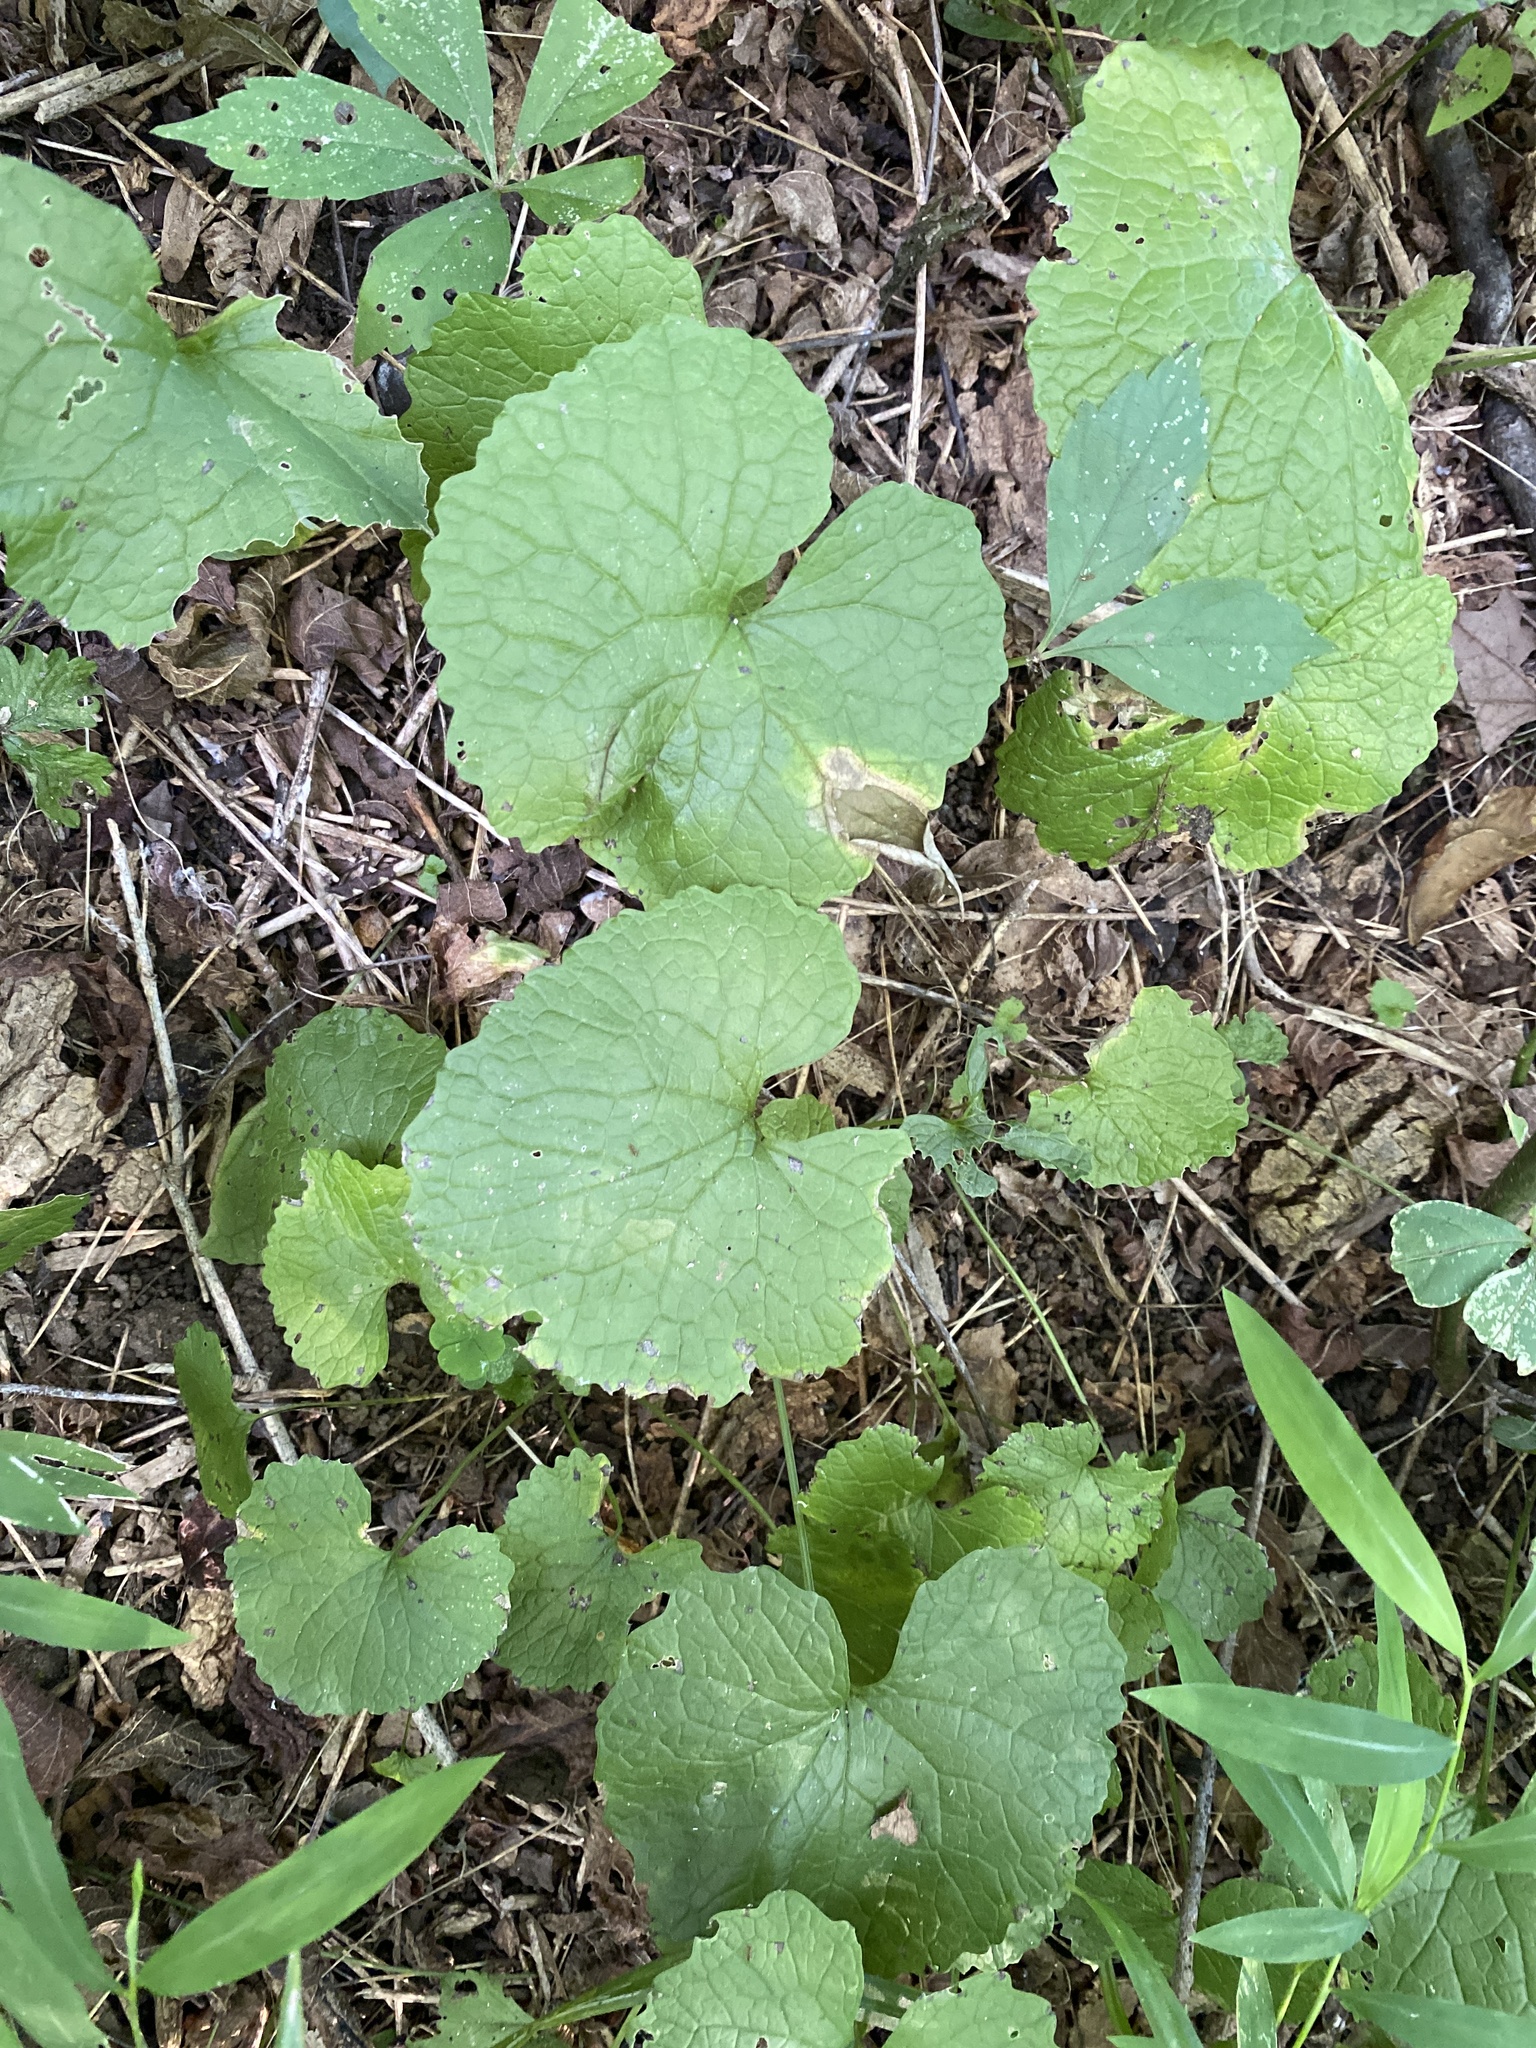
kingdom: Plantae
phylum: Tracheophyta
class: Magnoliopsida
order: Brassicales
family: Brassicaceae
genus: Alliaria
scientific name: Alliaria petiolata
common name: Garlic mustard
